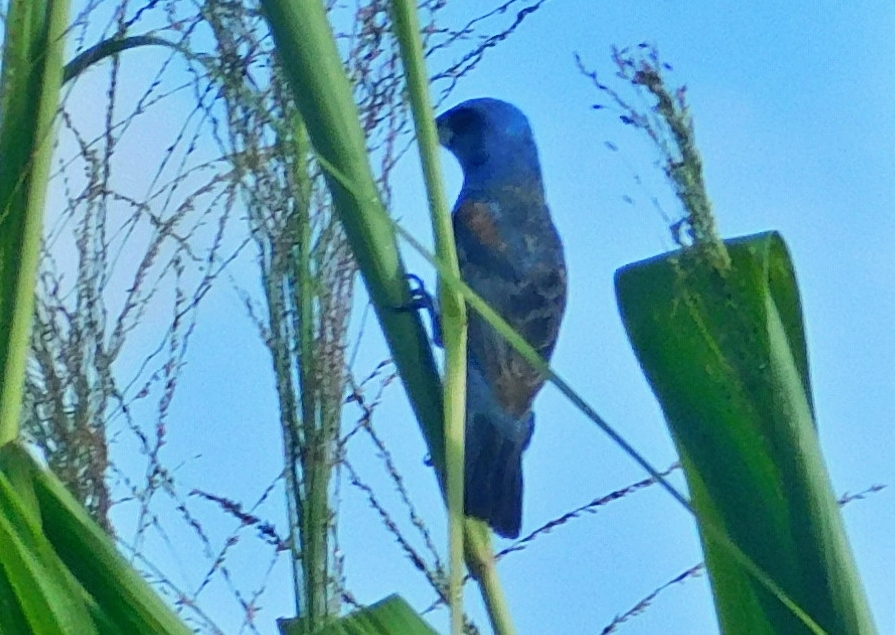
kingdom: Animalia
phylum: Chordata
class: Aves
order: Passeriformes
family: Cardinalidae
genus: Passerina
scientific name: Passerina caerulea
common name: Blue grosbeak
